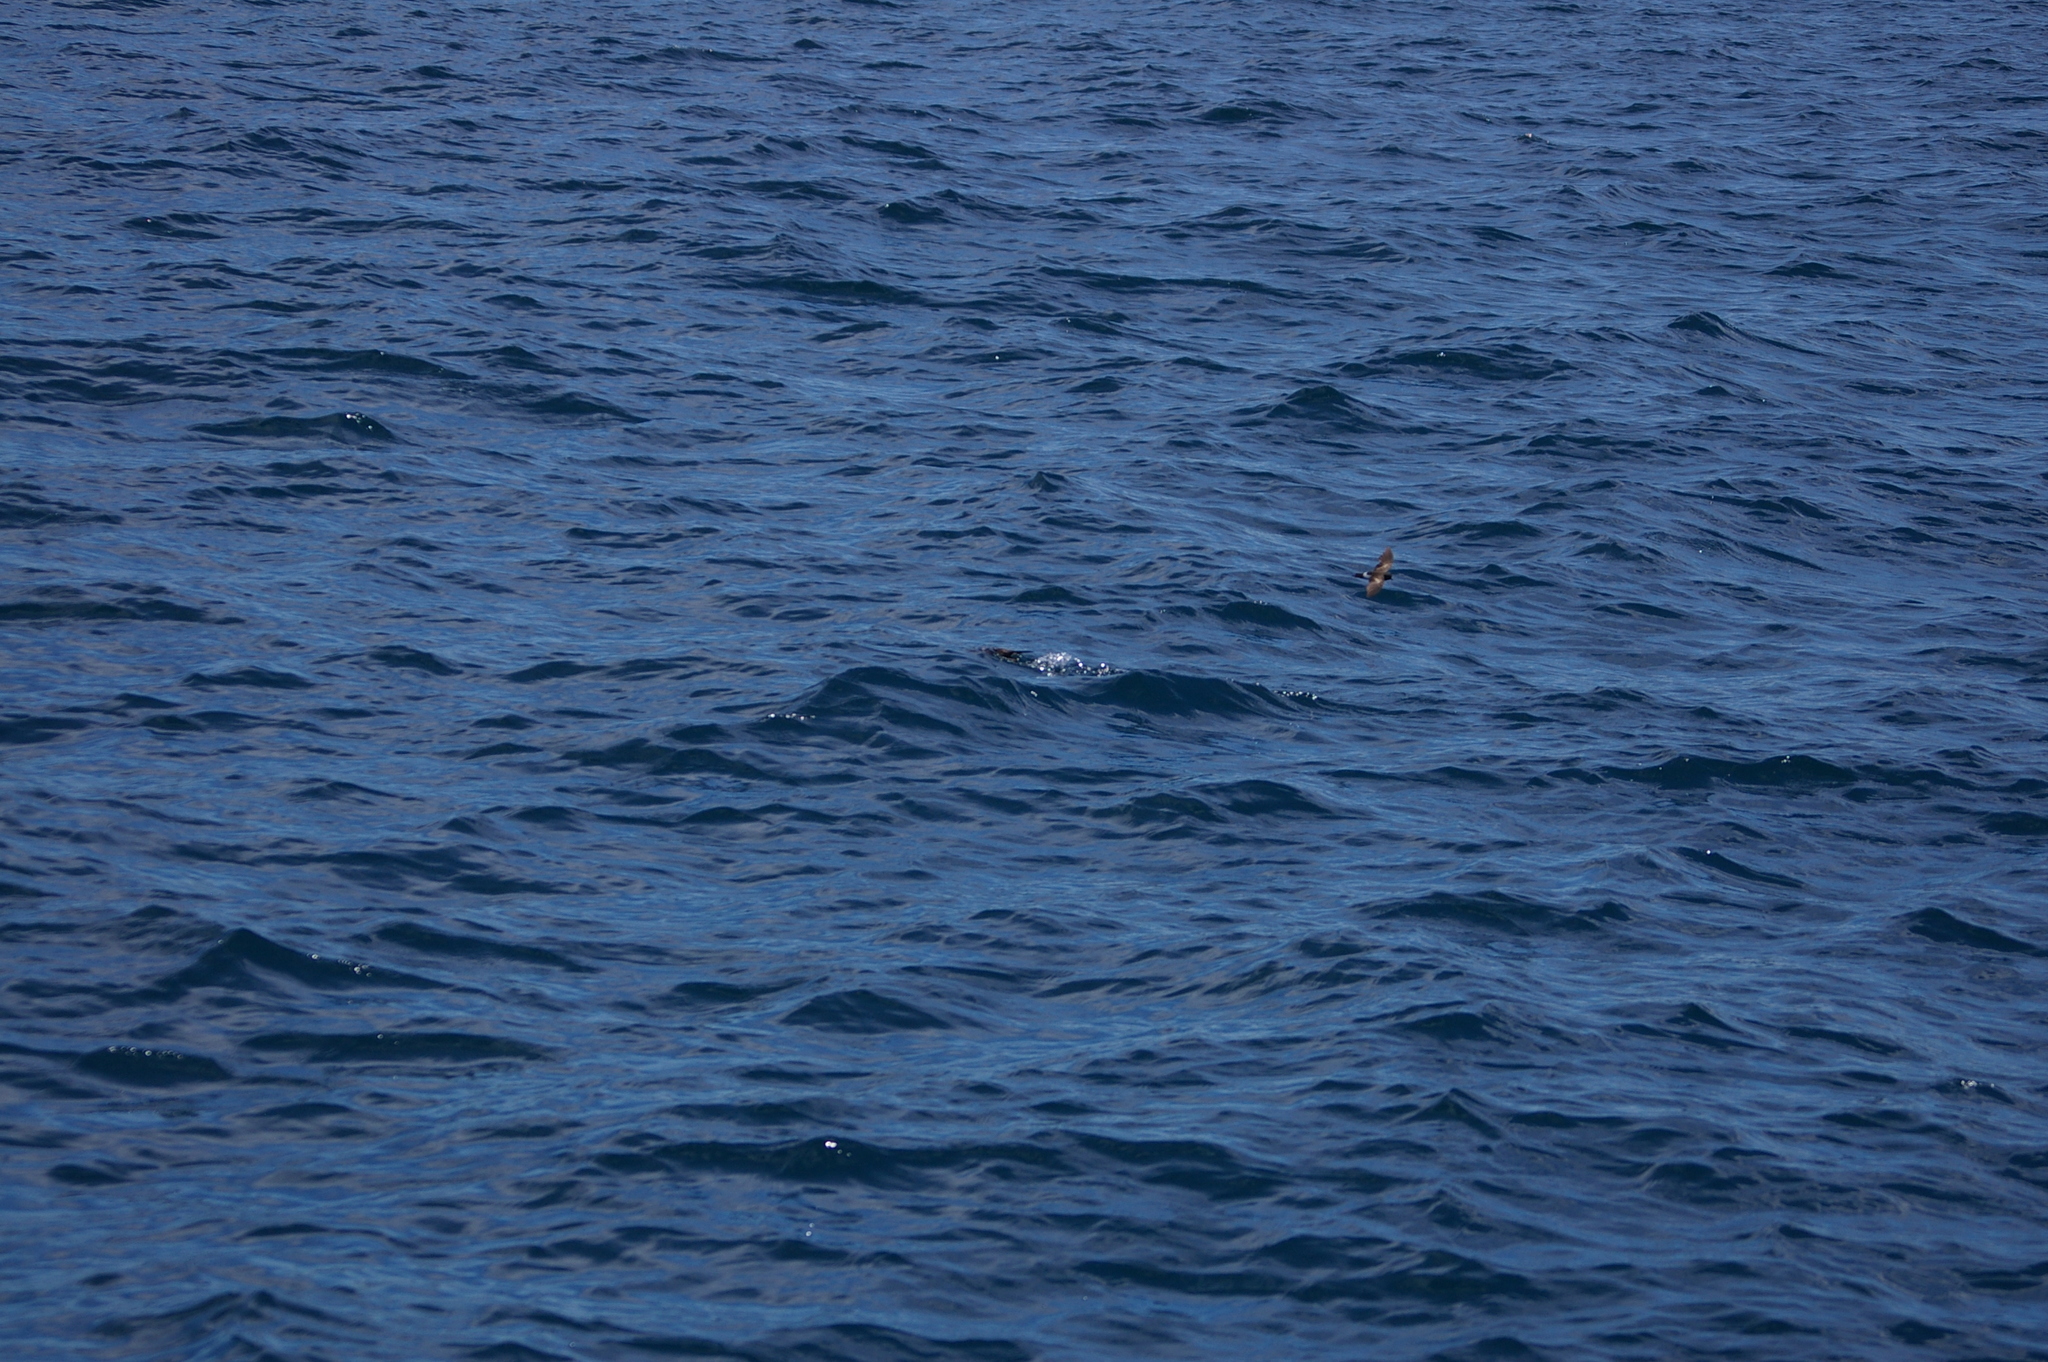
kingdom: Animalia
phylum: Chordata
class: Aves
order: Procellariiformes
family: Procellariidae
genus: Puffinus
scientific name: Puffinus subalaris
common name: Galapagos shearwater
